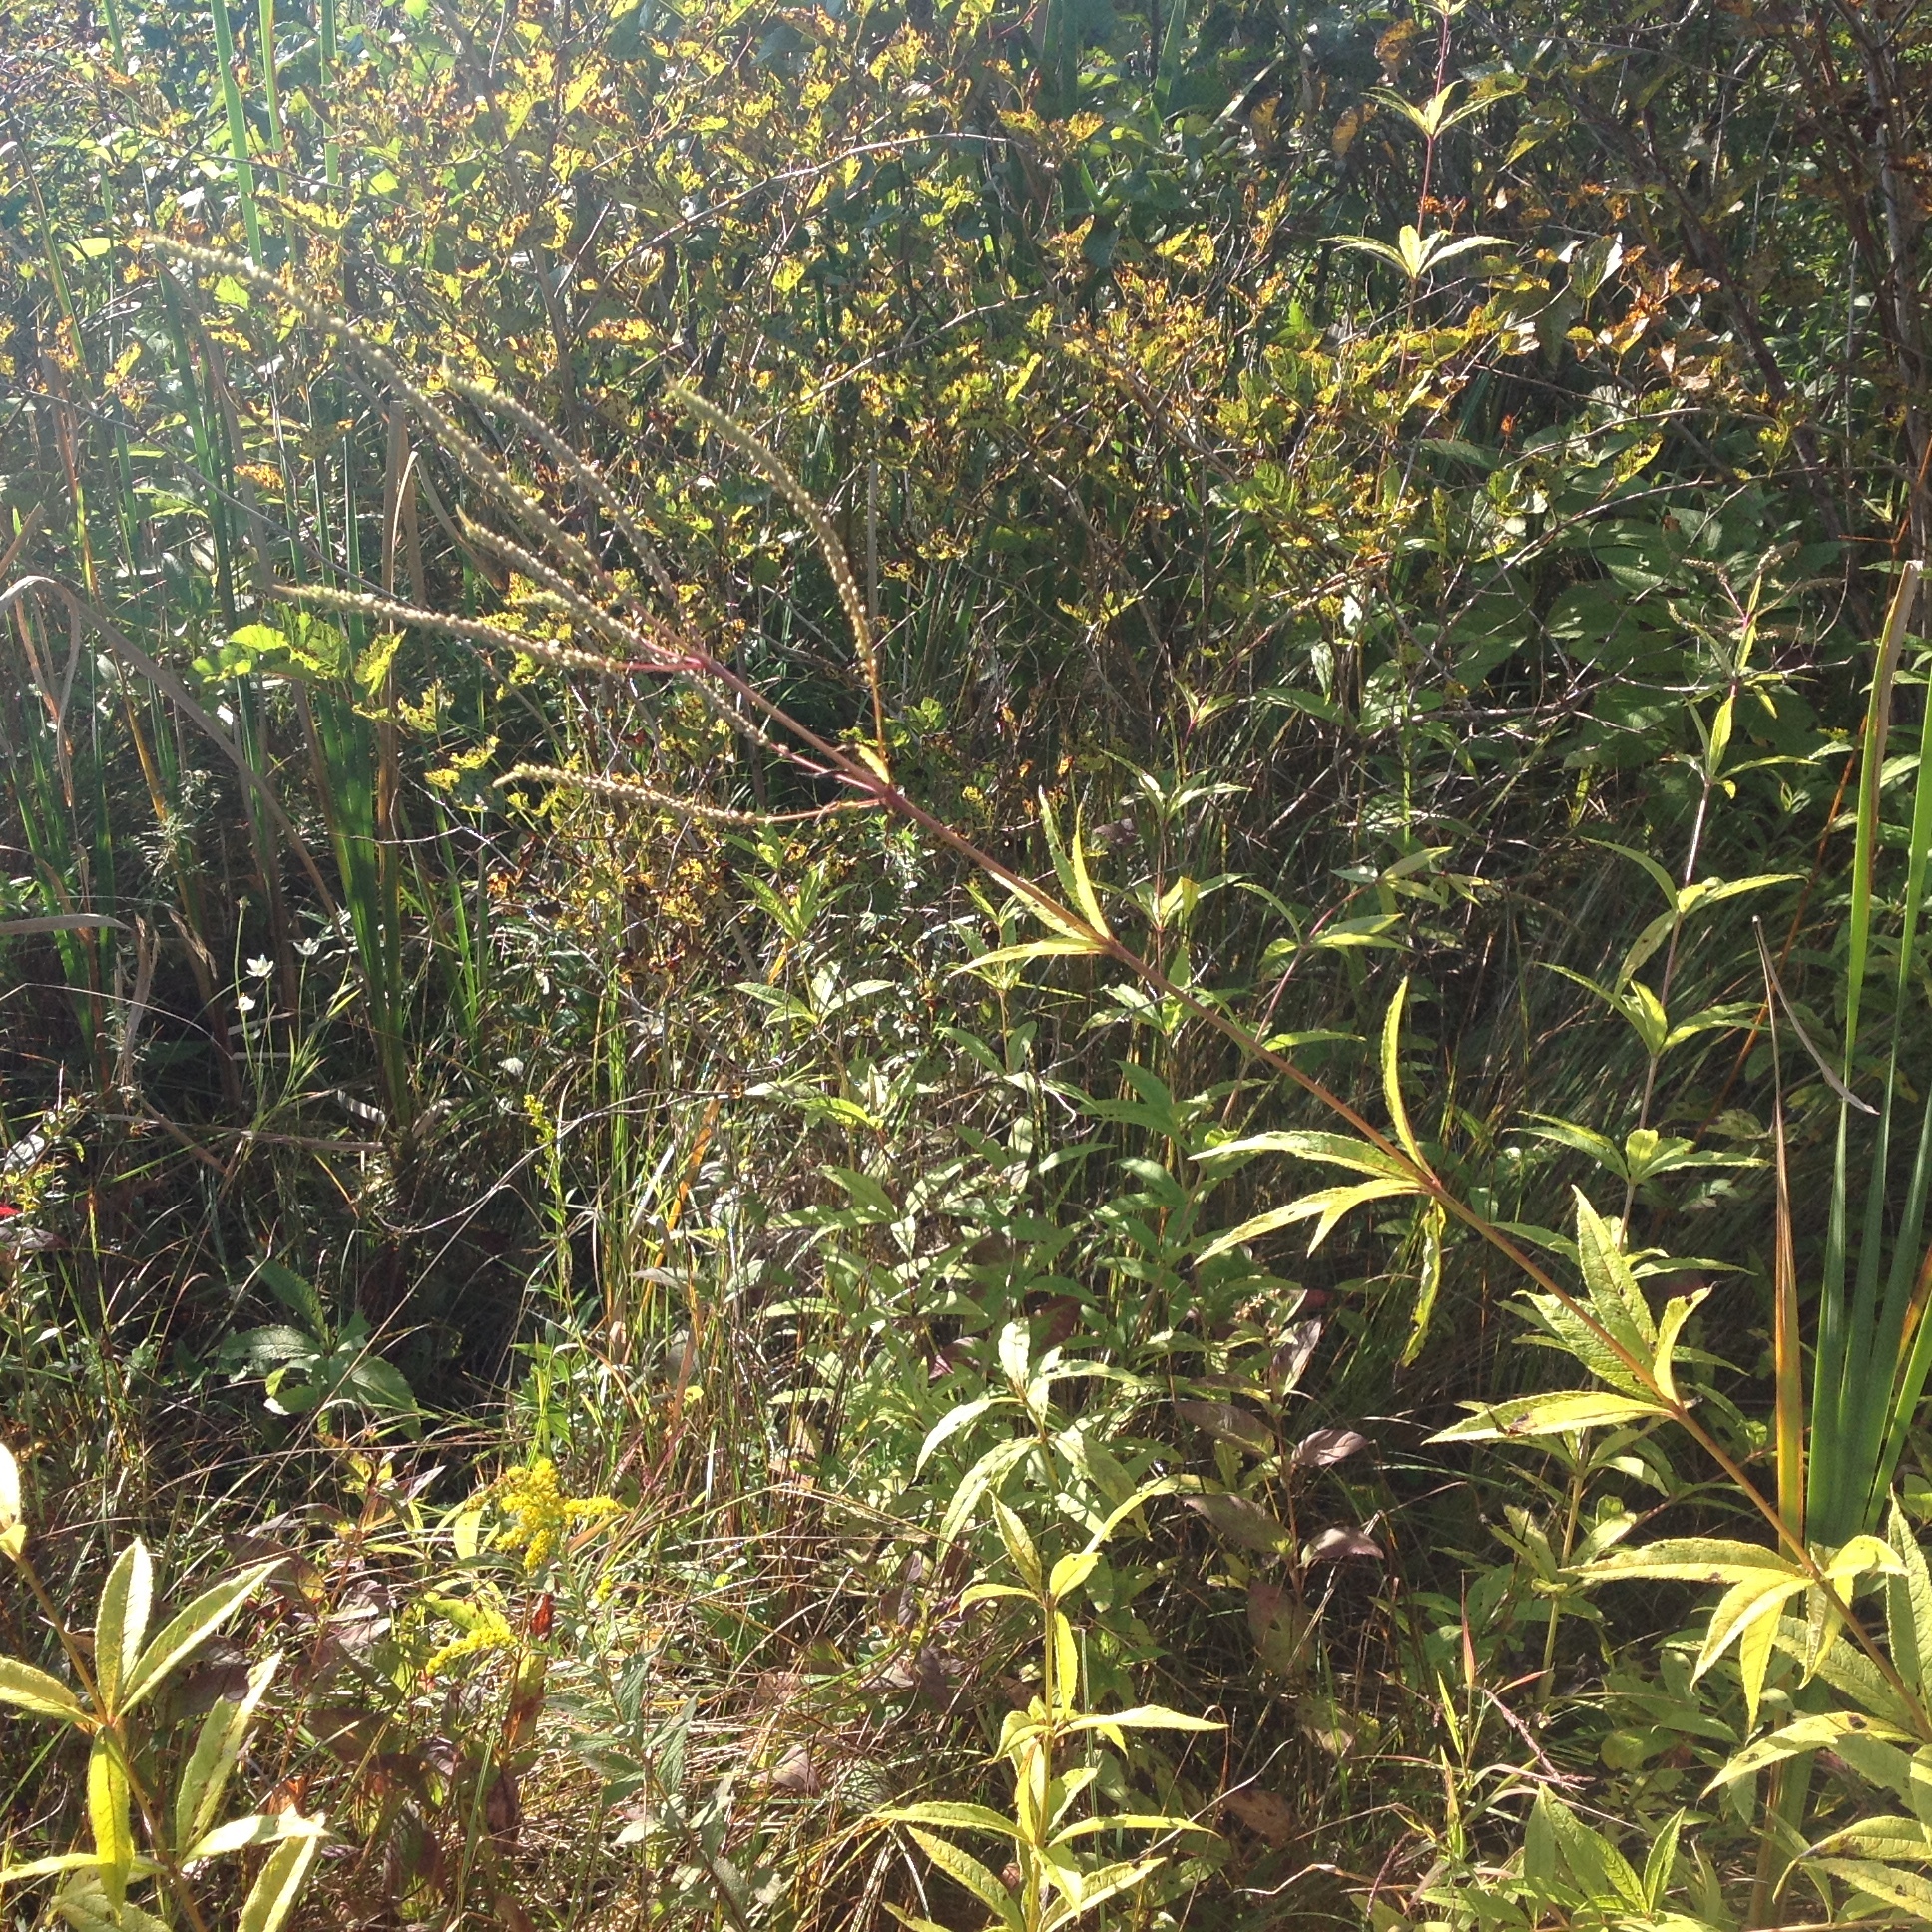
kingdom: Plantae
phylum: Tracheophyta
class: Magnoliopsida
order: Lamiales
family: Plantaginaceae
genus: Veronicastrum
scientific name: Veronicastrum virginicum
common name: Blackroot
